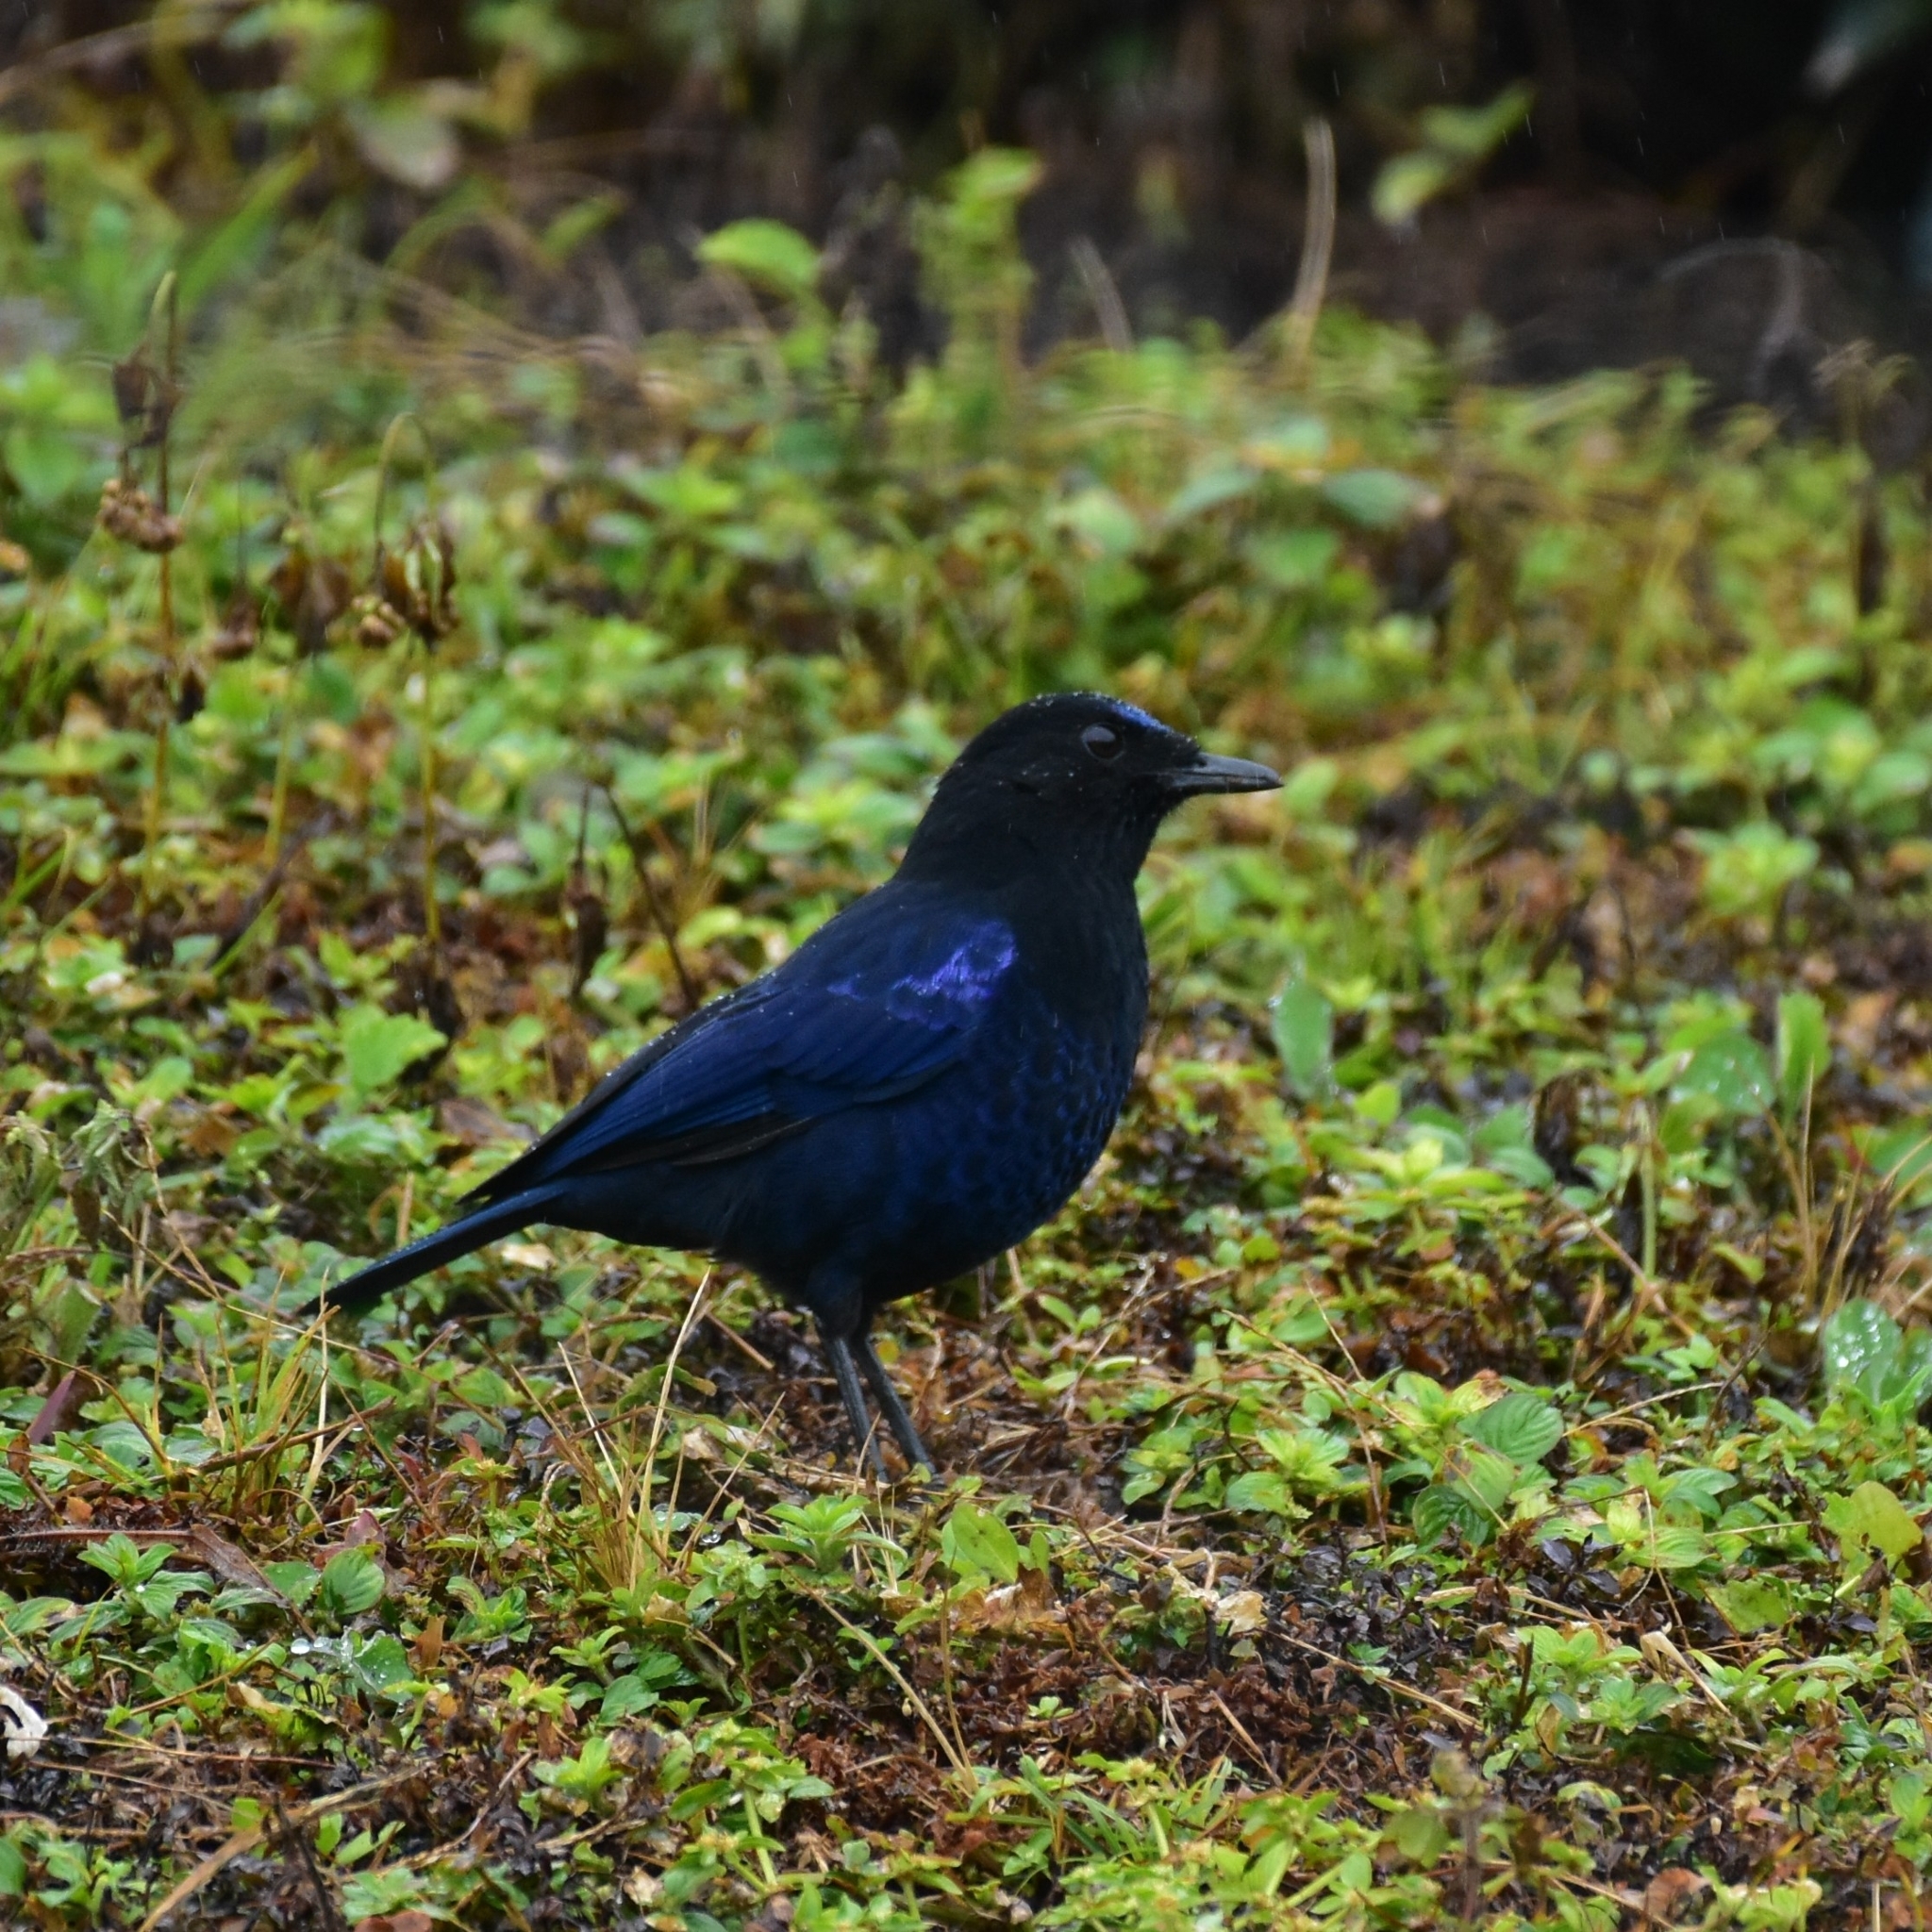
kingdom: Animalia
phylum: Chordata
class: Aves
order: Passeriformes
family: Muscicapidae
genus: Myophonus
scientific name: Myophonus horsfieldii
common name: Malabar whistling-thrush
